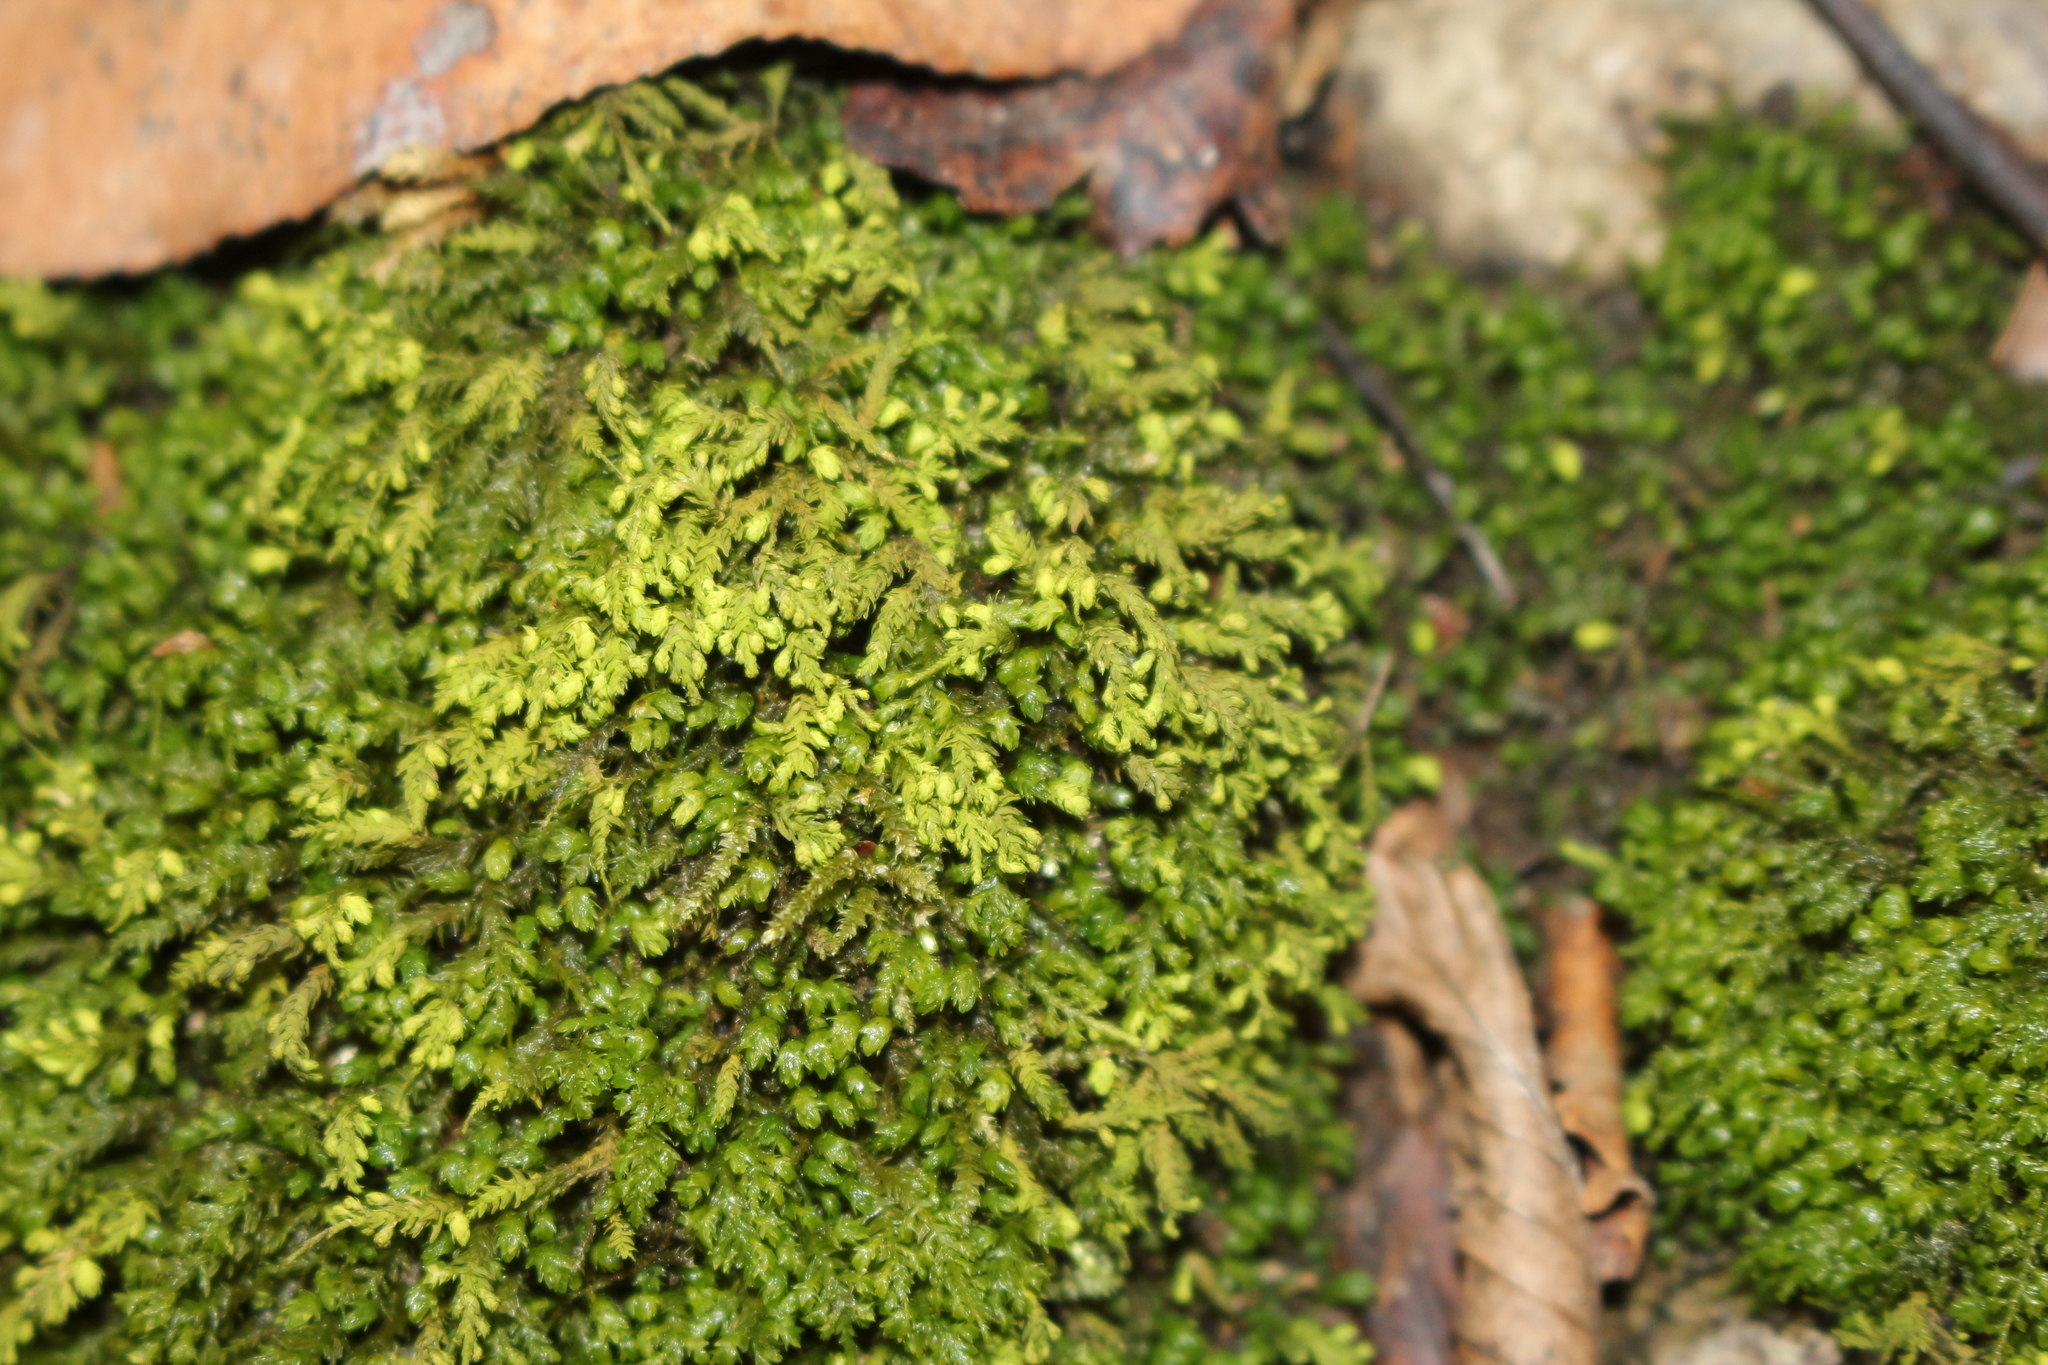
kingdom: Plantae
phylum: Bryophyta
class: Bryopsida
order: Hypnales
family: Neckeraceae
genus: Pseudanomodon
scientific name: Pseudanomodon attenuatus
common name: Tree-skirt moss
